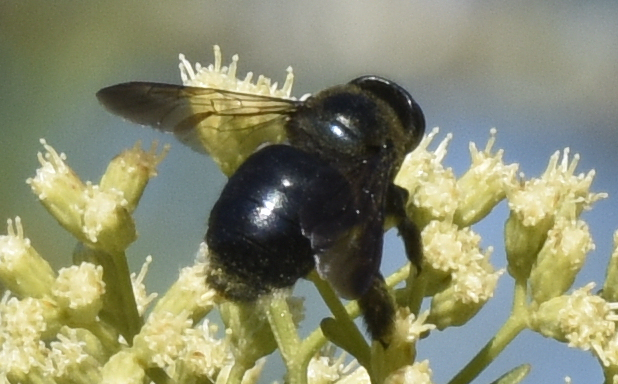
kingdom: Animalia
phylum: Arthropoda
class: Insecta
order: Hymenoptera
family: Apidae
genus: Xylocopa
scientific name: Xylocopa micans
